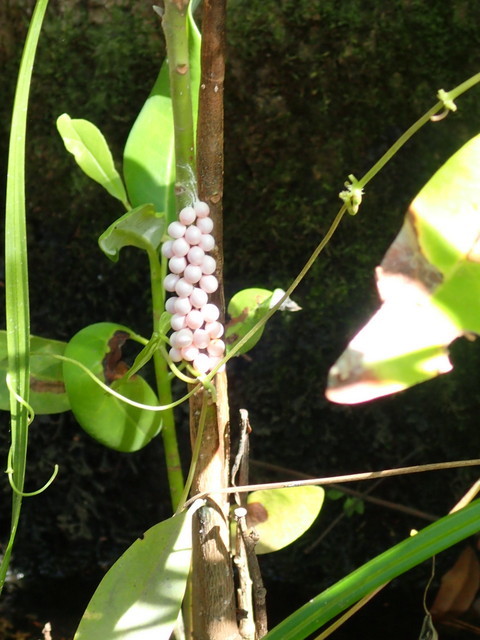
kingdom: Animalia
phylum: Mollusca
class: Gastropoda
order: Architaenioglossa
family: Ampullariidae
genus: Pomacea
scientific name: Pomacea paludosa
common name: Florida applesnail
